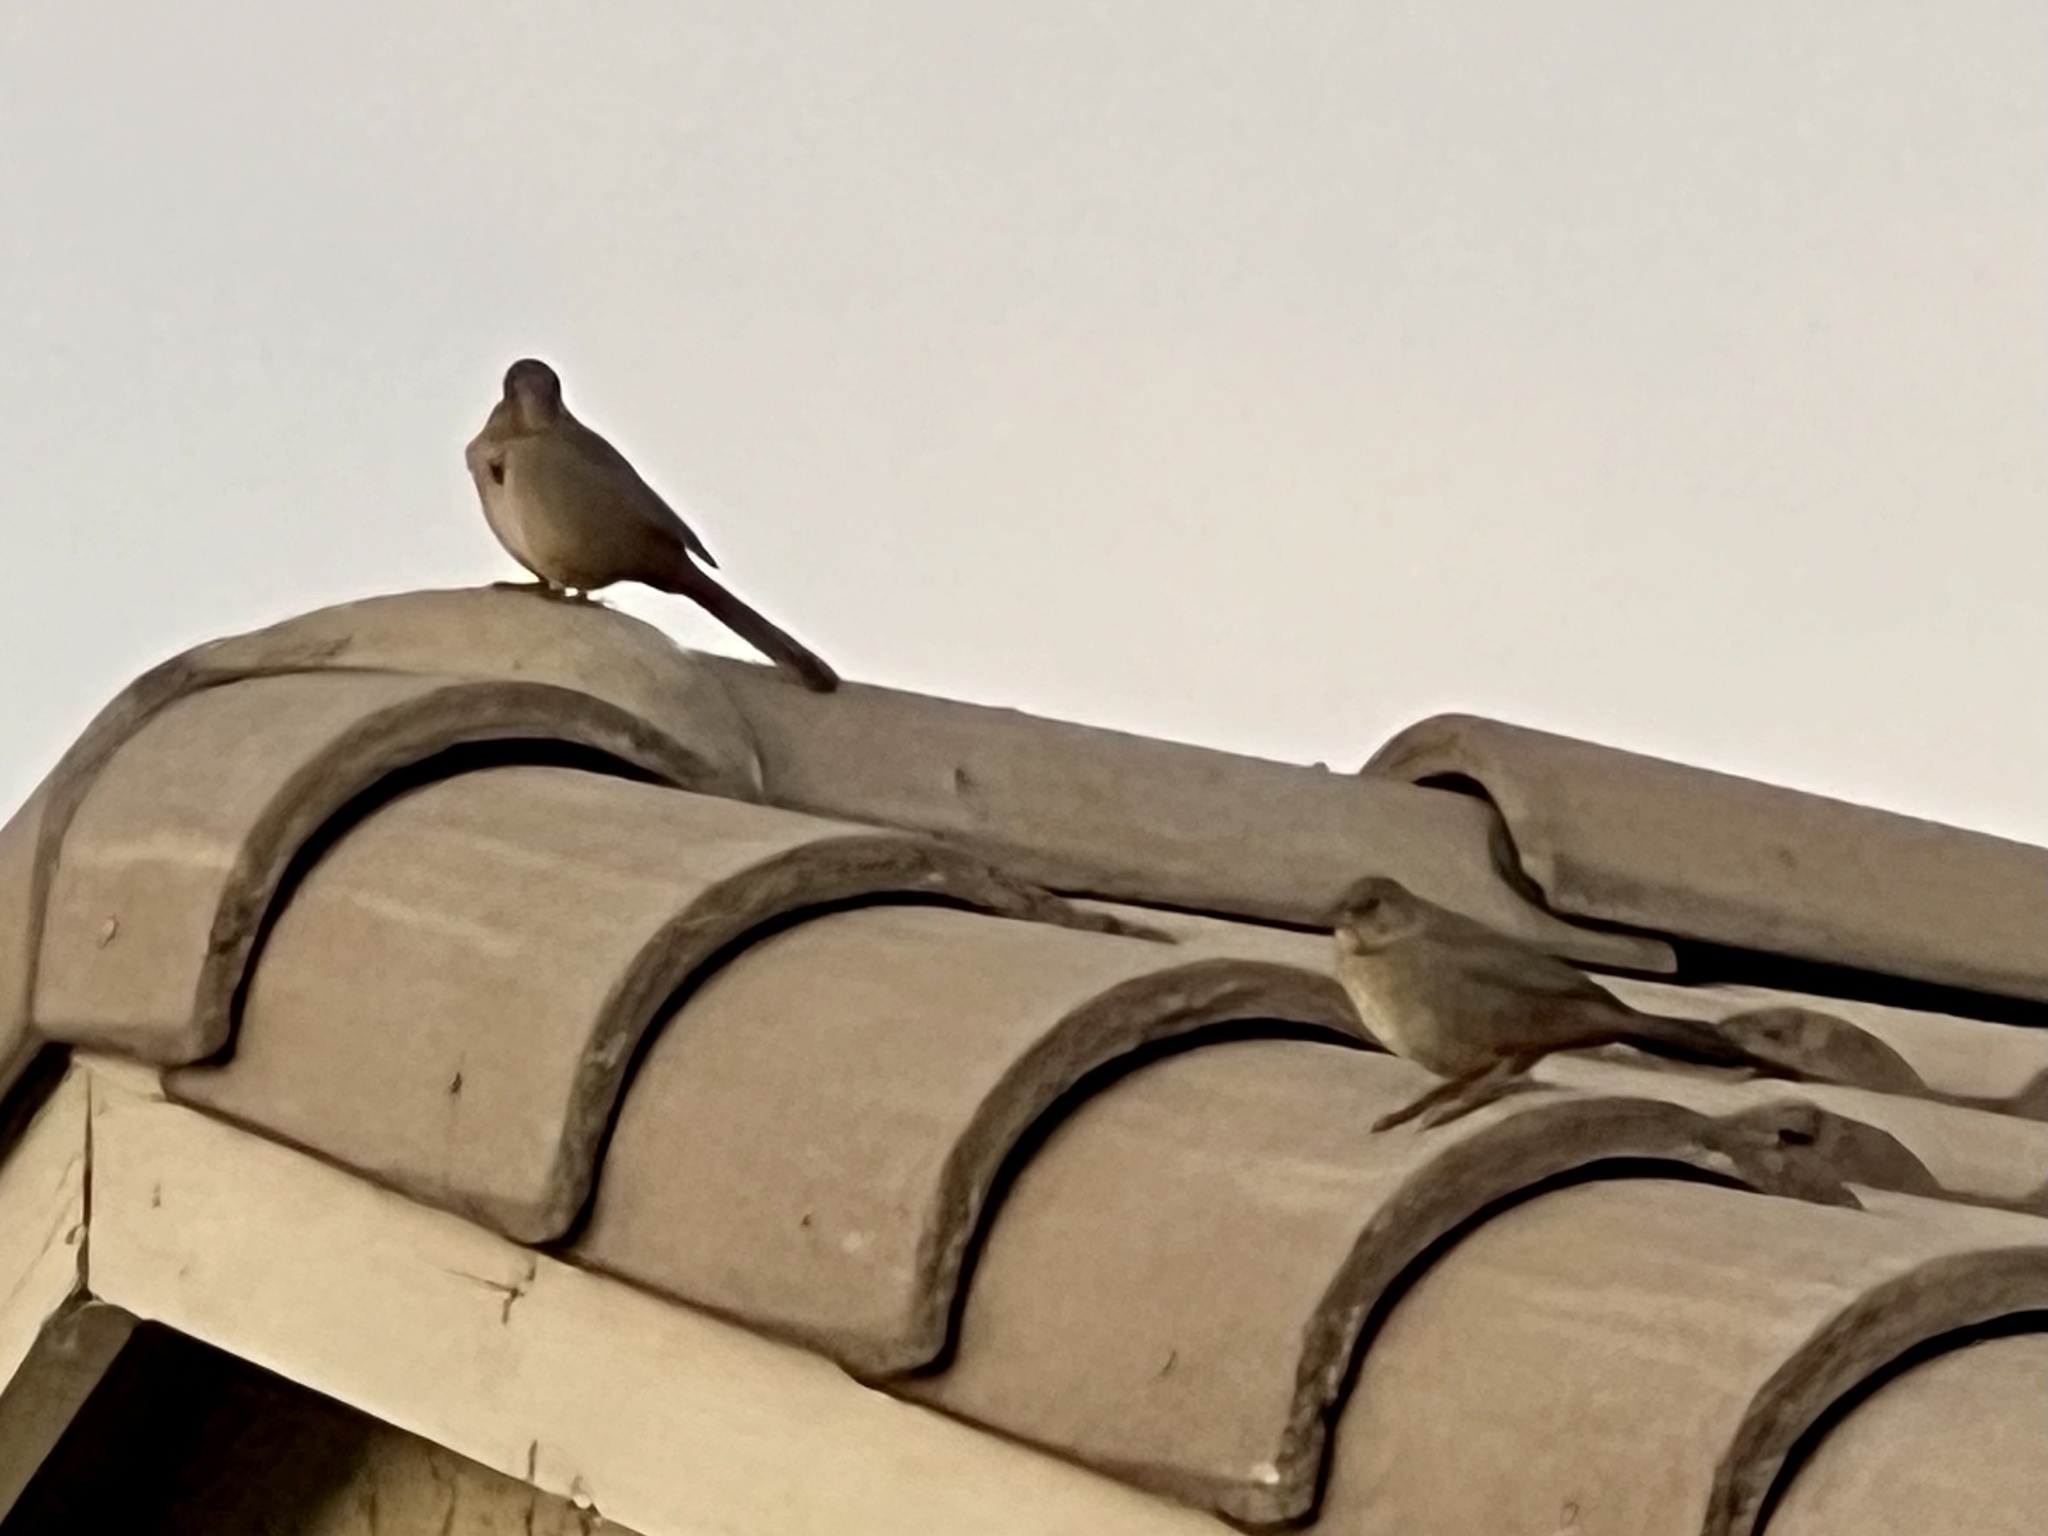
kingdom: Animalia
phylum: Chordata
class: Aves
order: Passeriformes
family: Passerellidae
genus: Melozone
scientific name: Melozone fusca
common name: Canyon towhee
